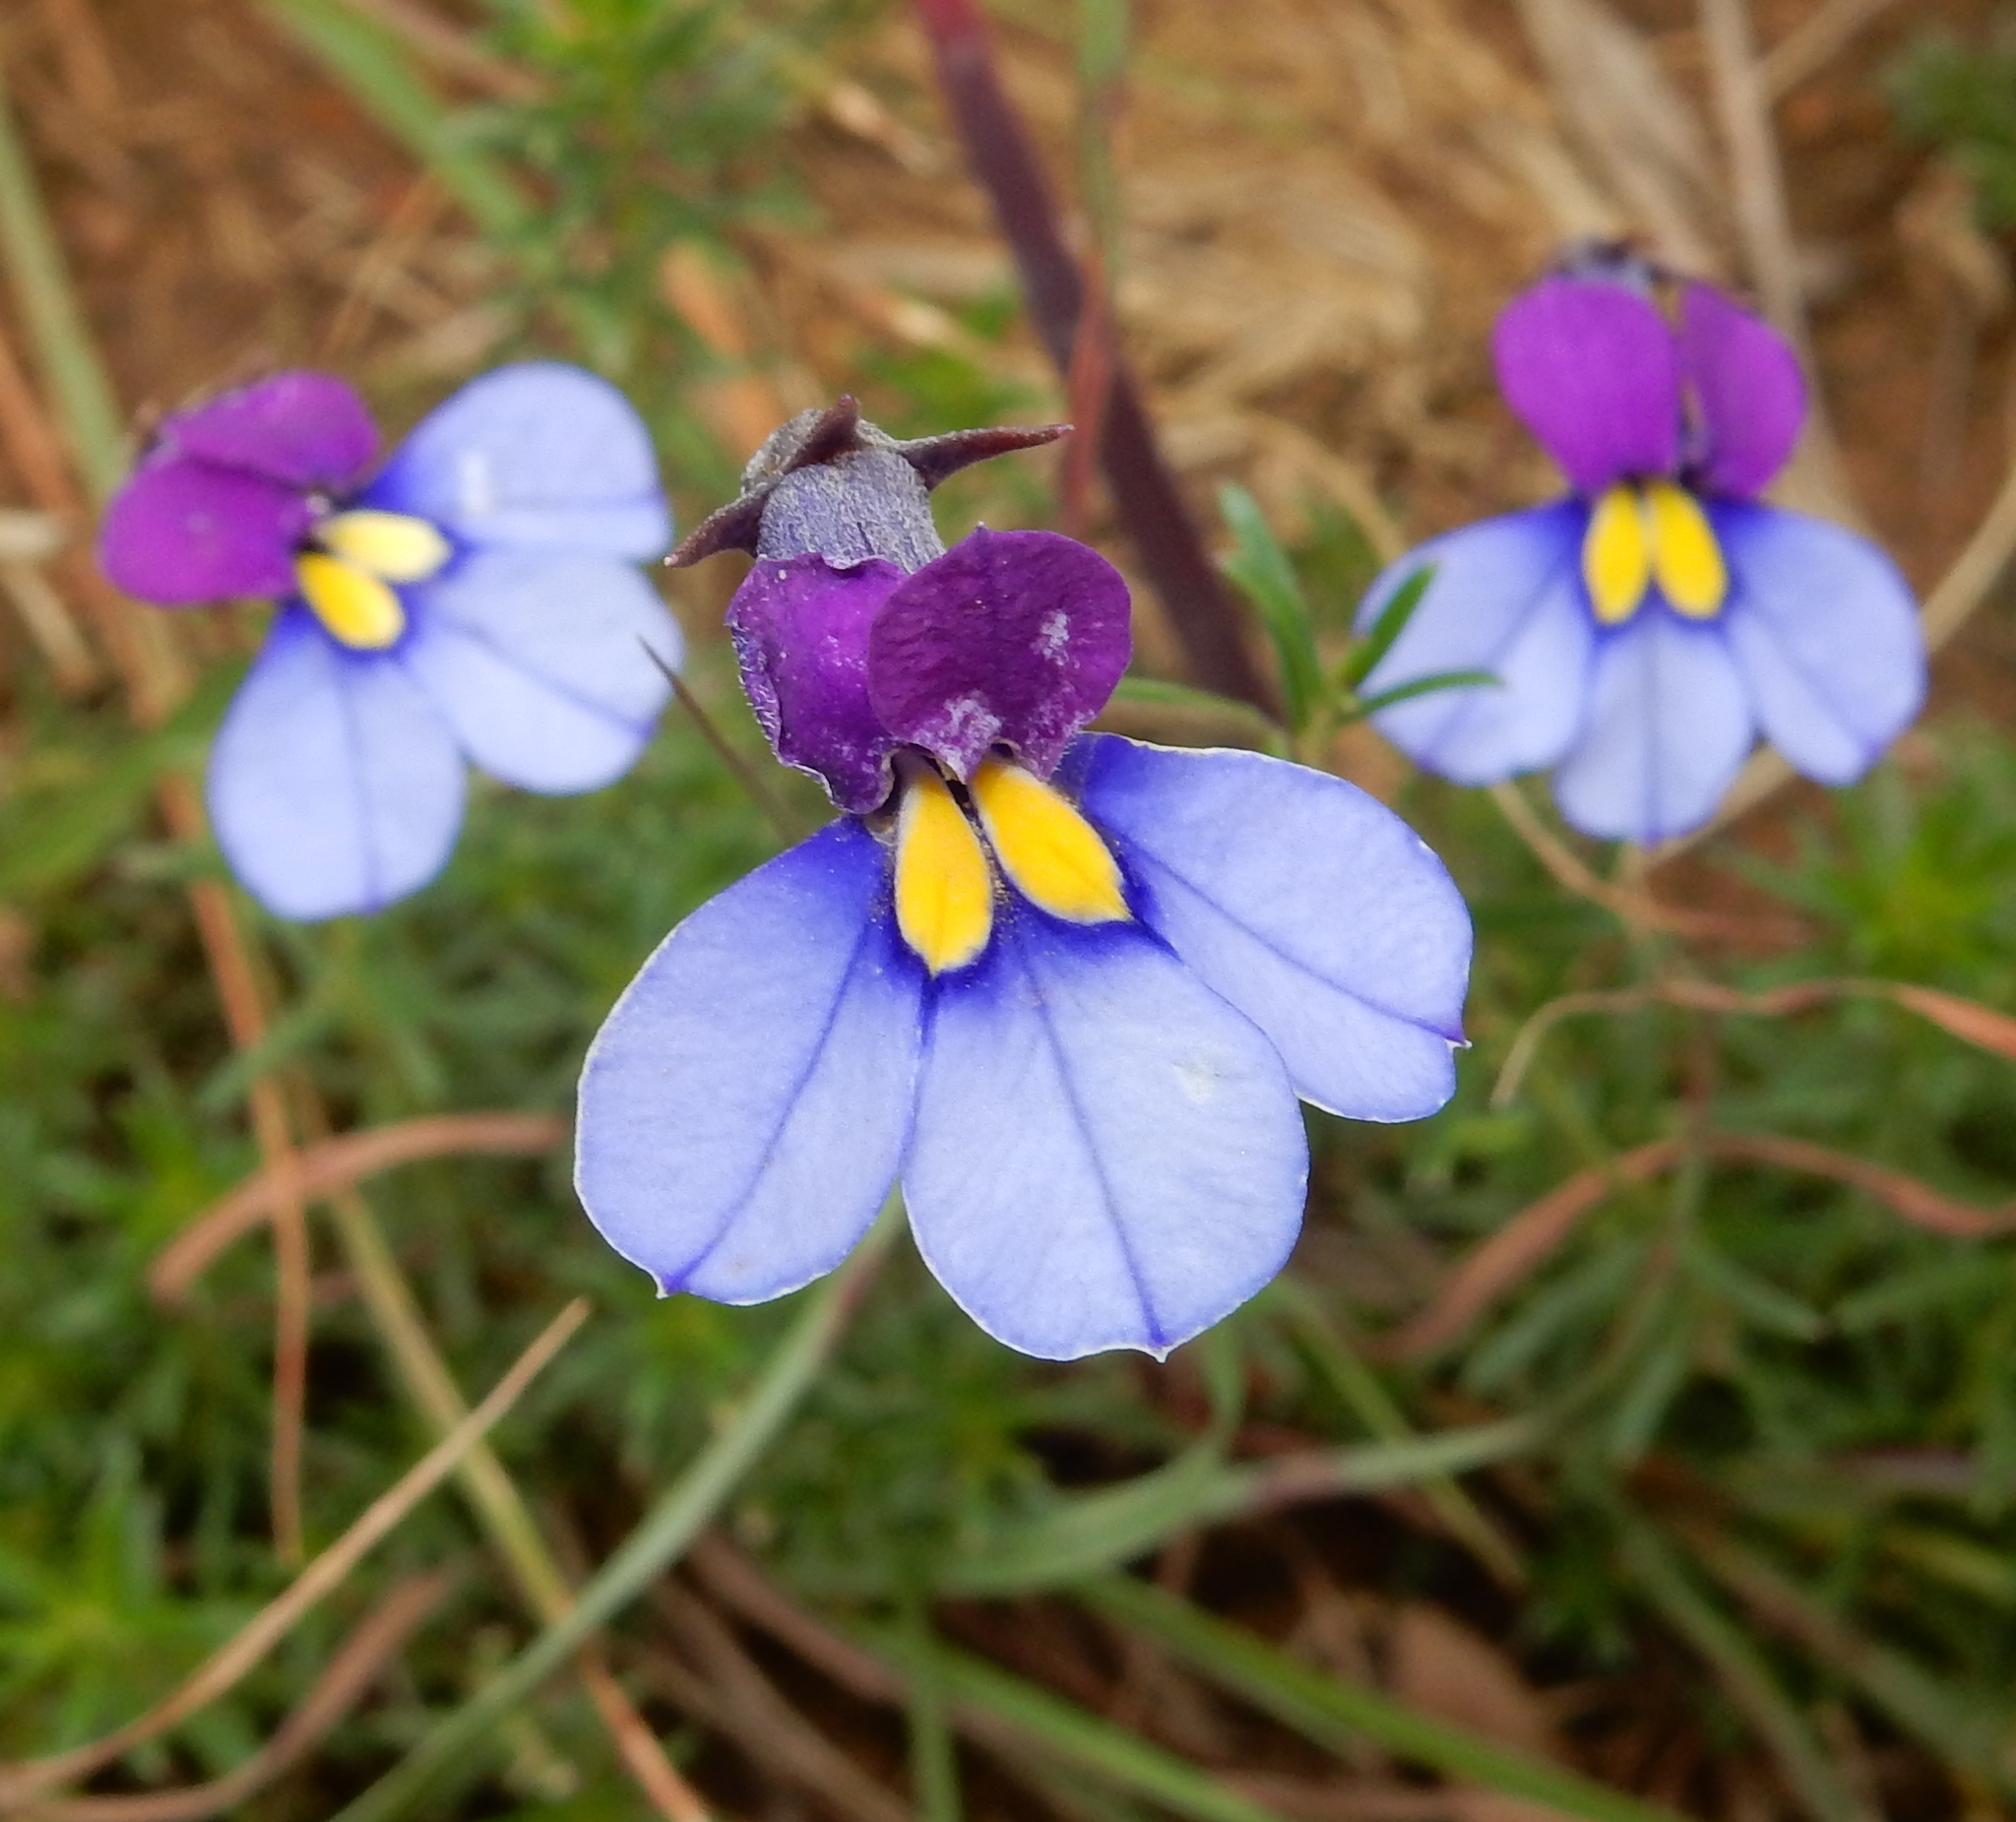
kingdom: Plantae
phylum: Tracheophyta
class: Magnoliopsida
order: Asterales
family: Campanulaceae
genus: Monopsis
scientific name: Monopsis decipiens
